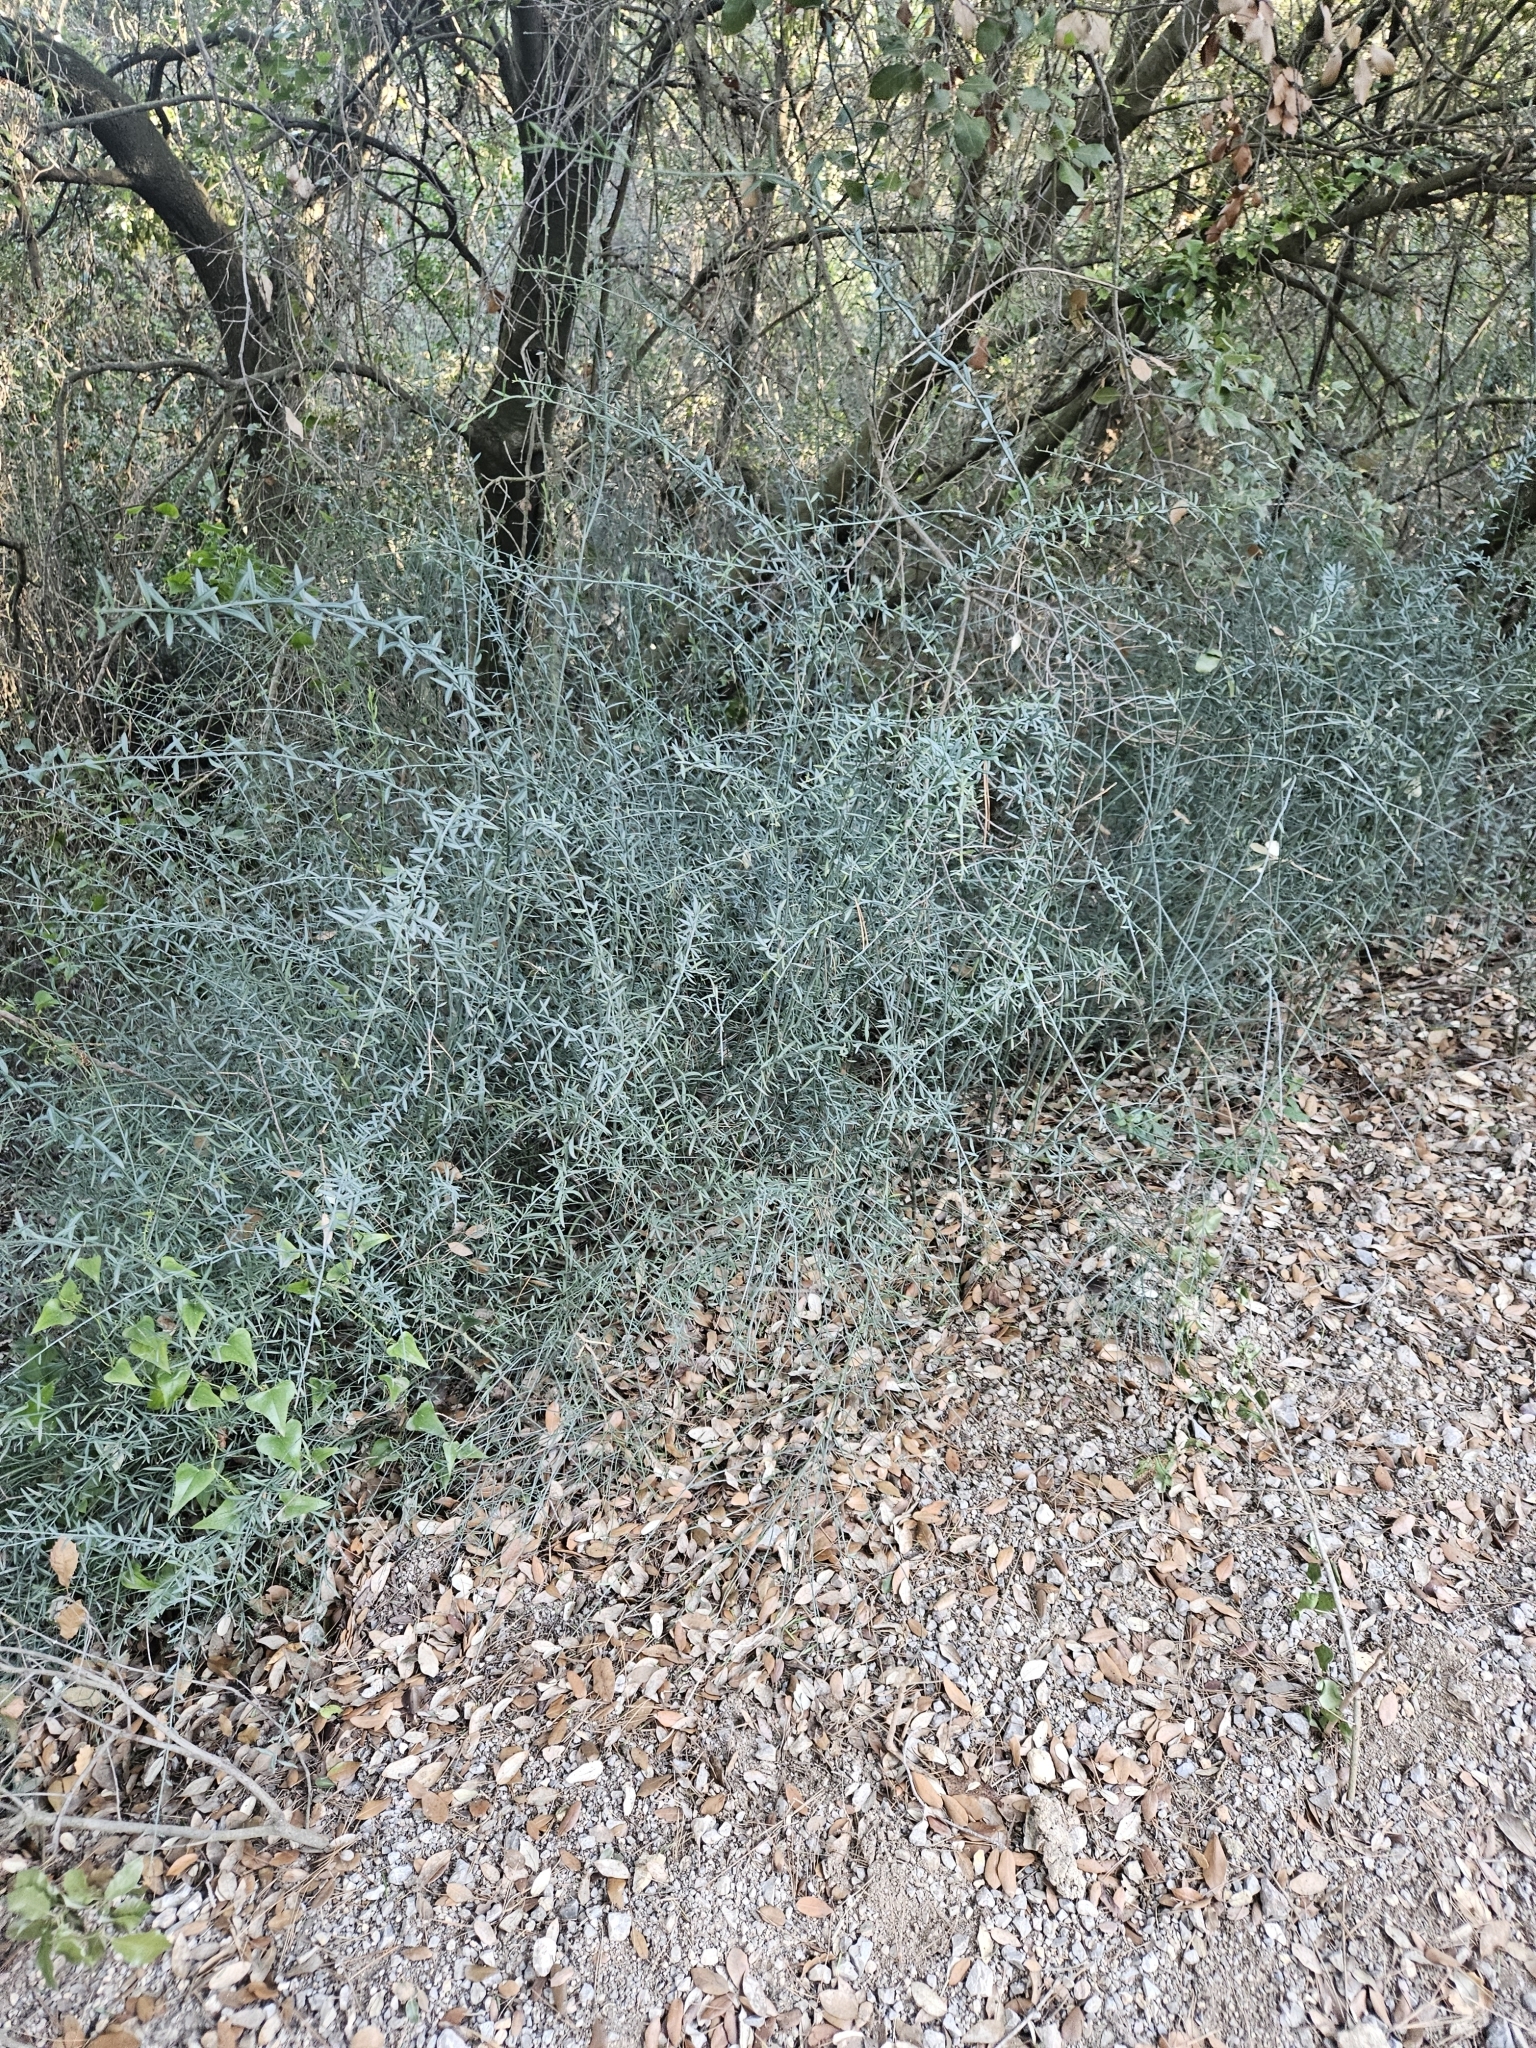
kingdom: Plantae
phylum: Tracheophyta
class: Magnoliopsida
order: Santalales
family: Santalaceae
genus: Osyris
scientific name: Osyris alba
